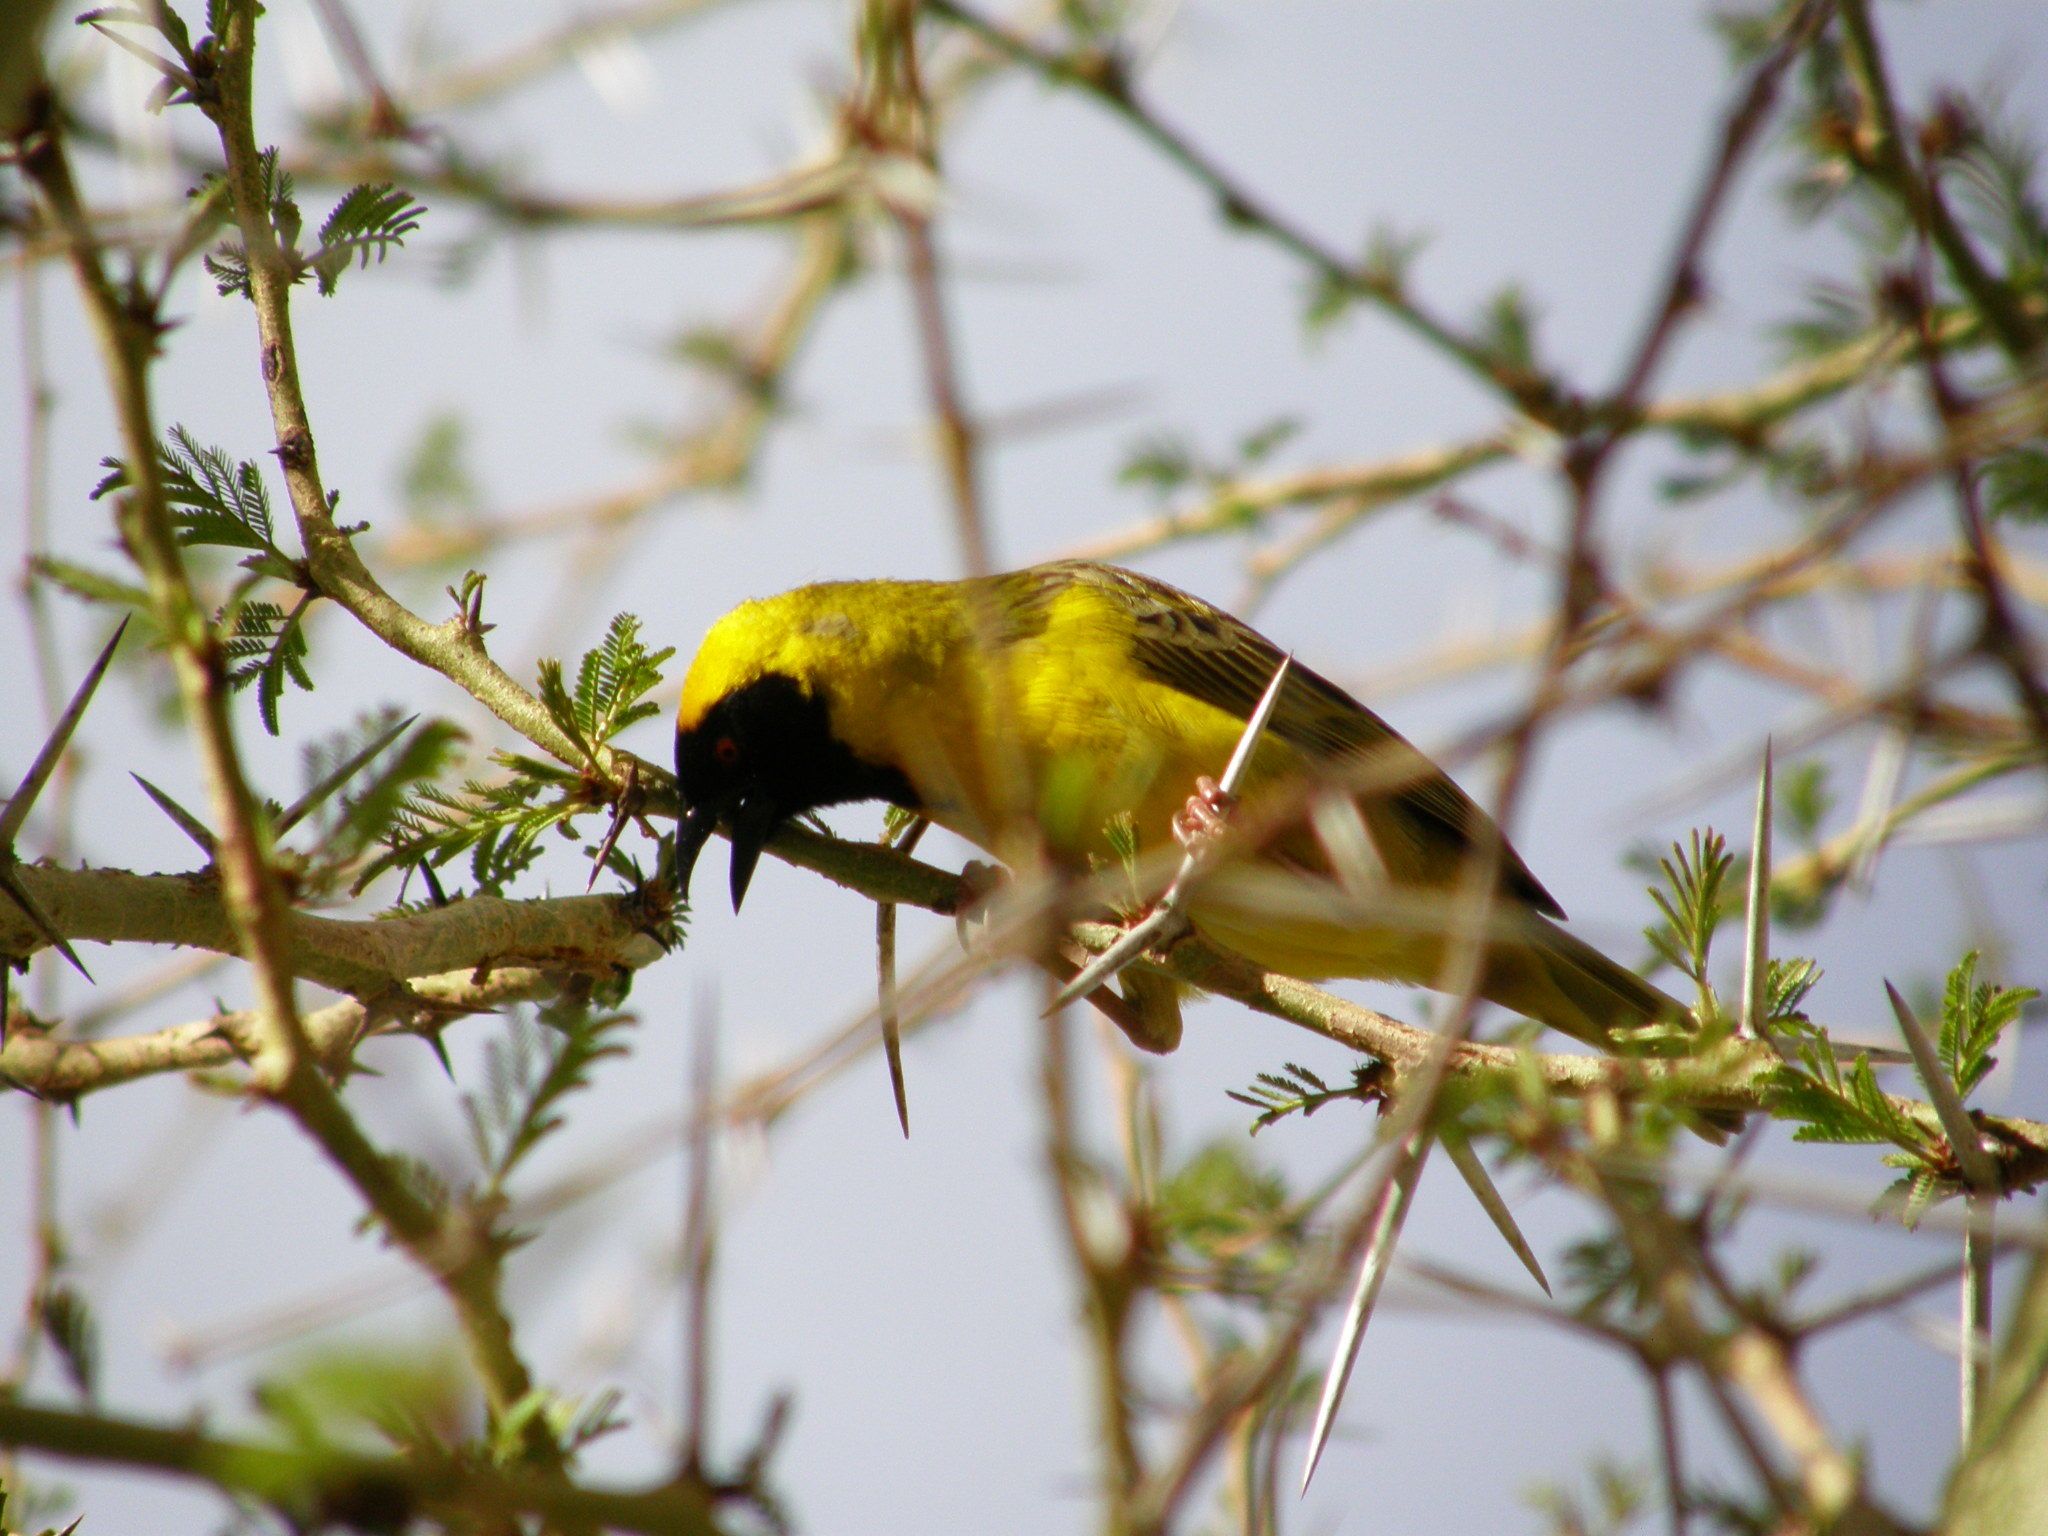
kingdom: Animalia
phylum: Chordata
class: Aves
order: Passeriformes
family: Ploceidae
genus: Ploceus
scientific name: Ploceus velatus
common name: Southern masked weaver
